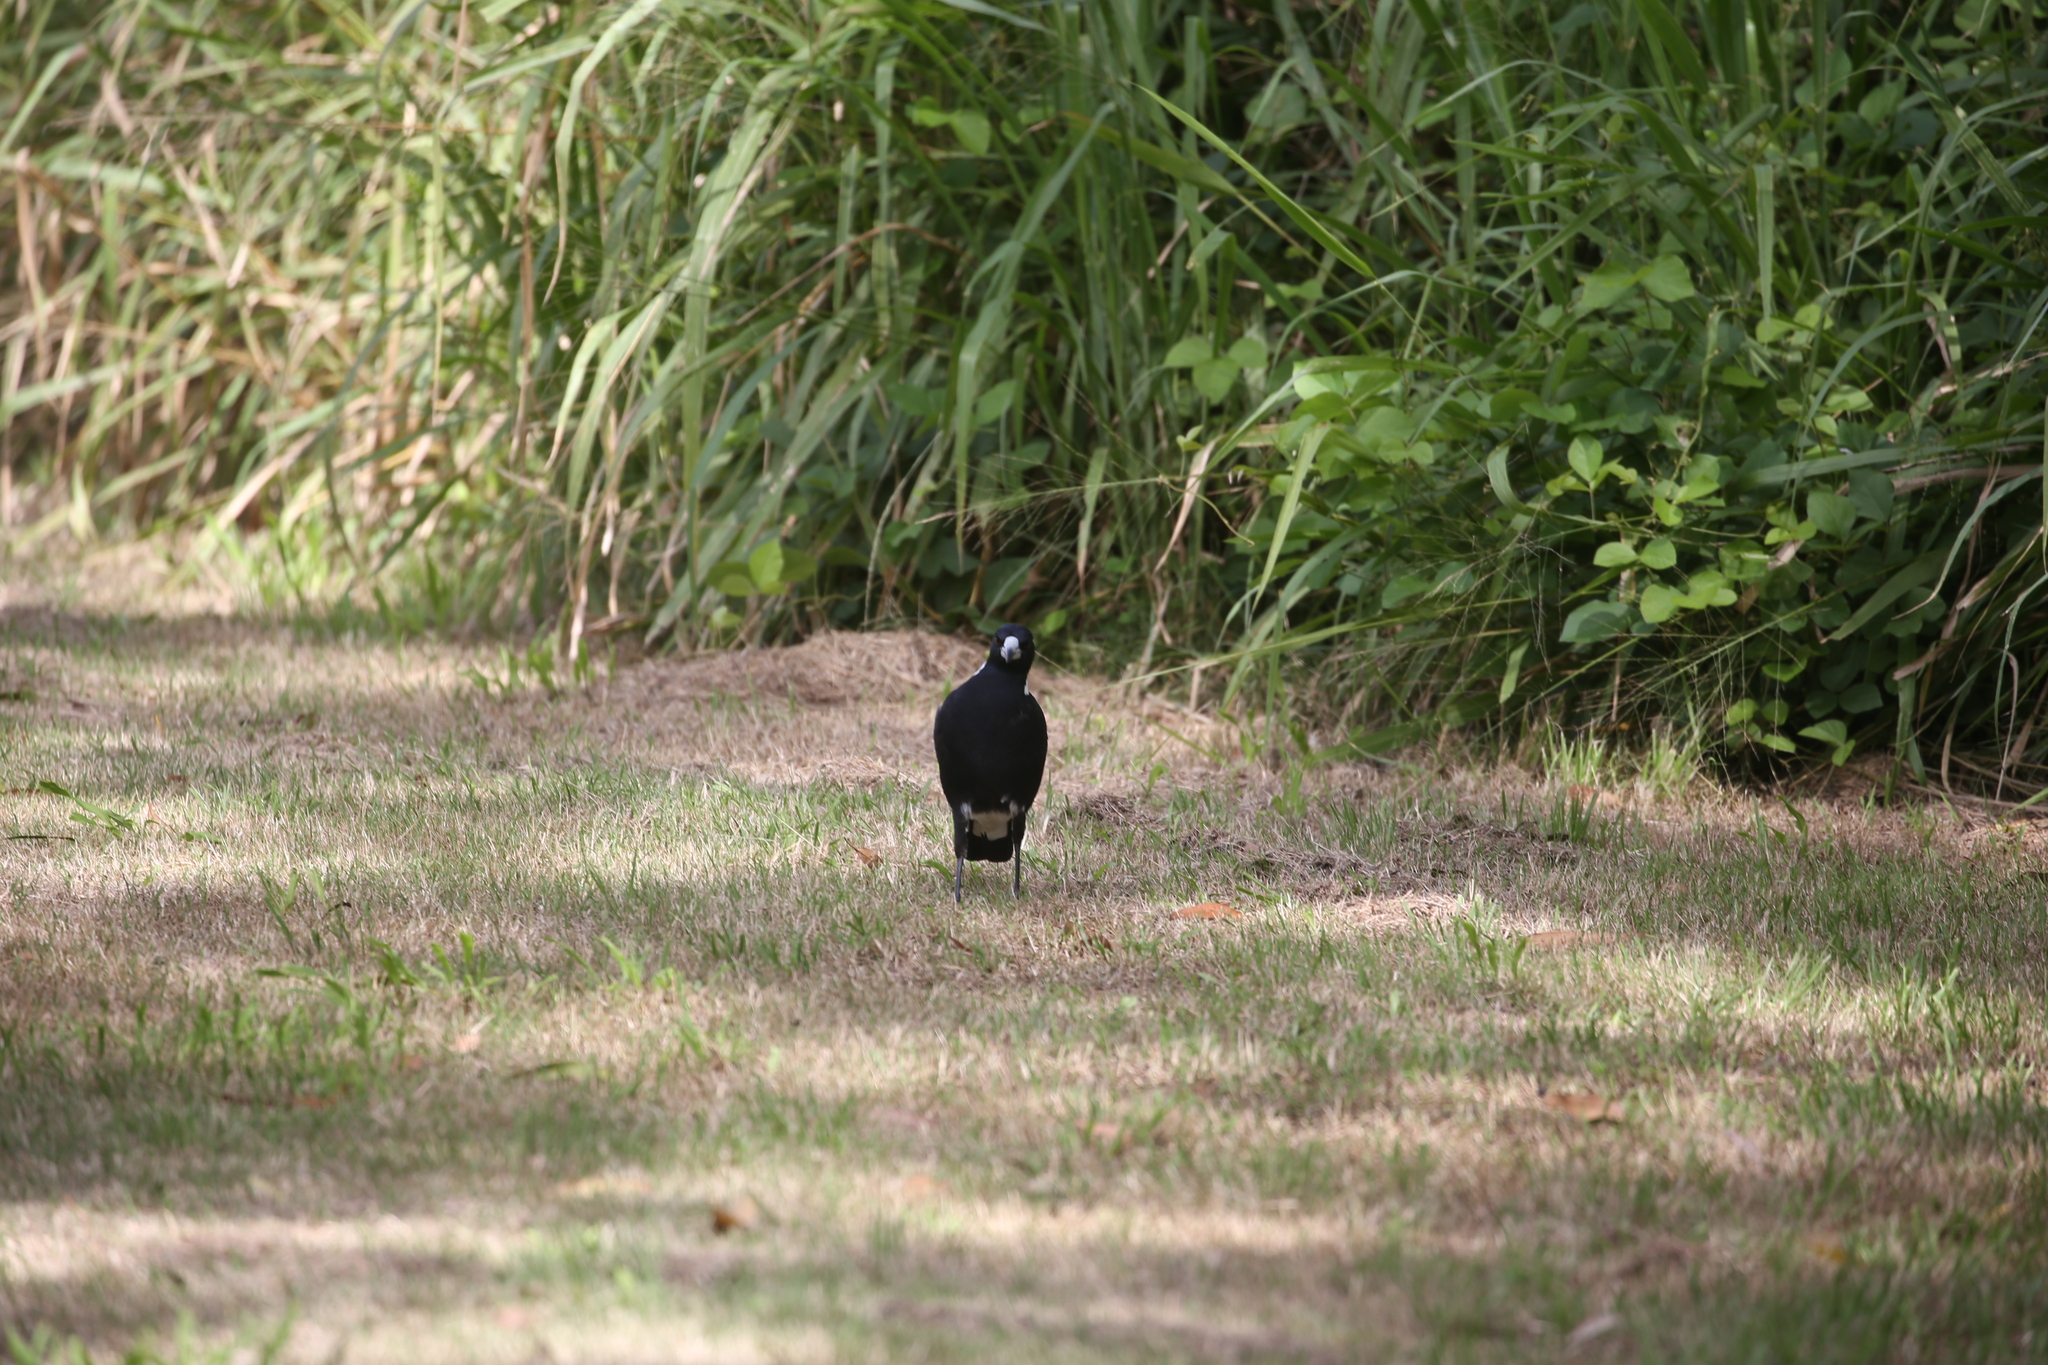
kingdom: Animalia
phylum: Chordata
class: Aves
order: Passeriformes
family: Cracticidae
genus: Gymnorhina
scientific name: Gymnorhina tibicen
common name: Australian magpie
